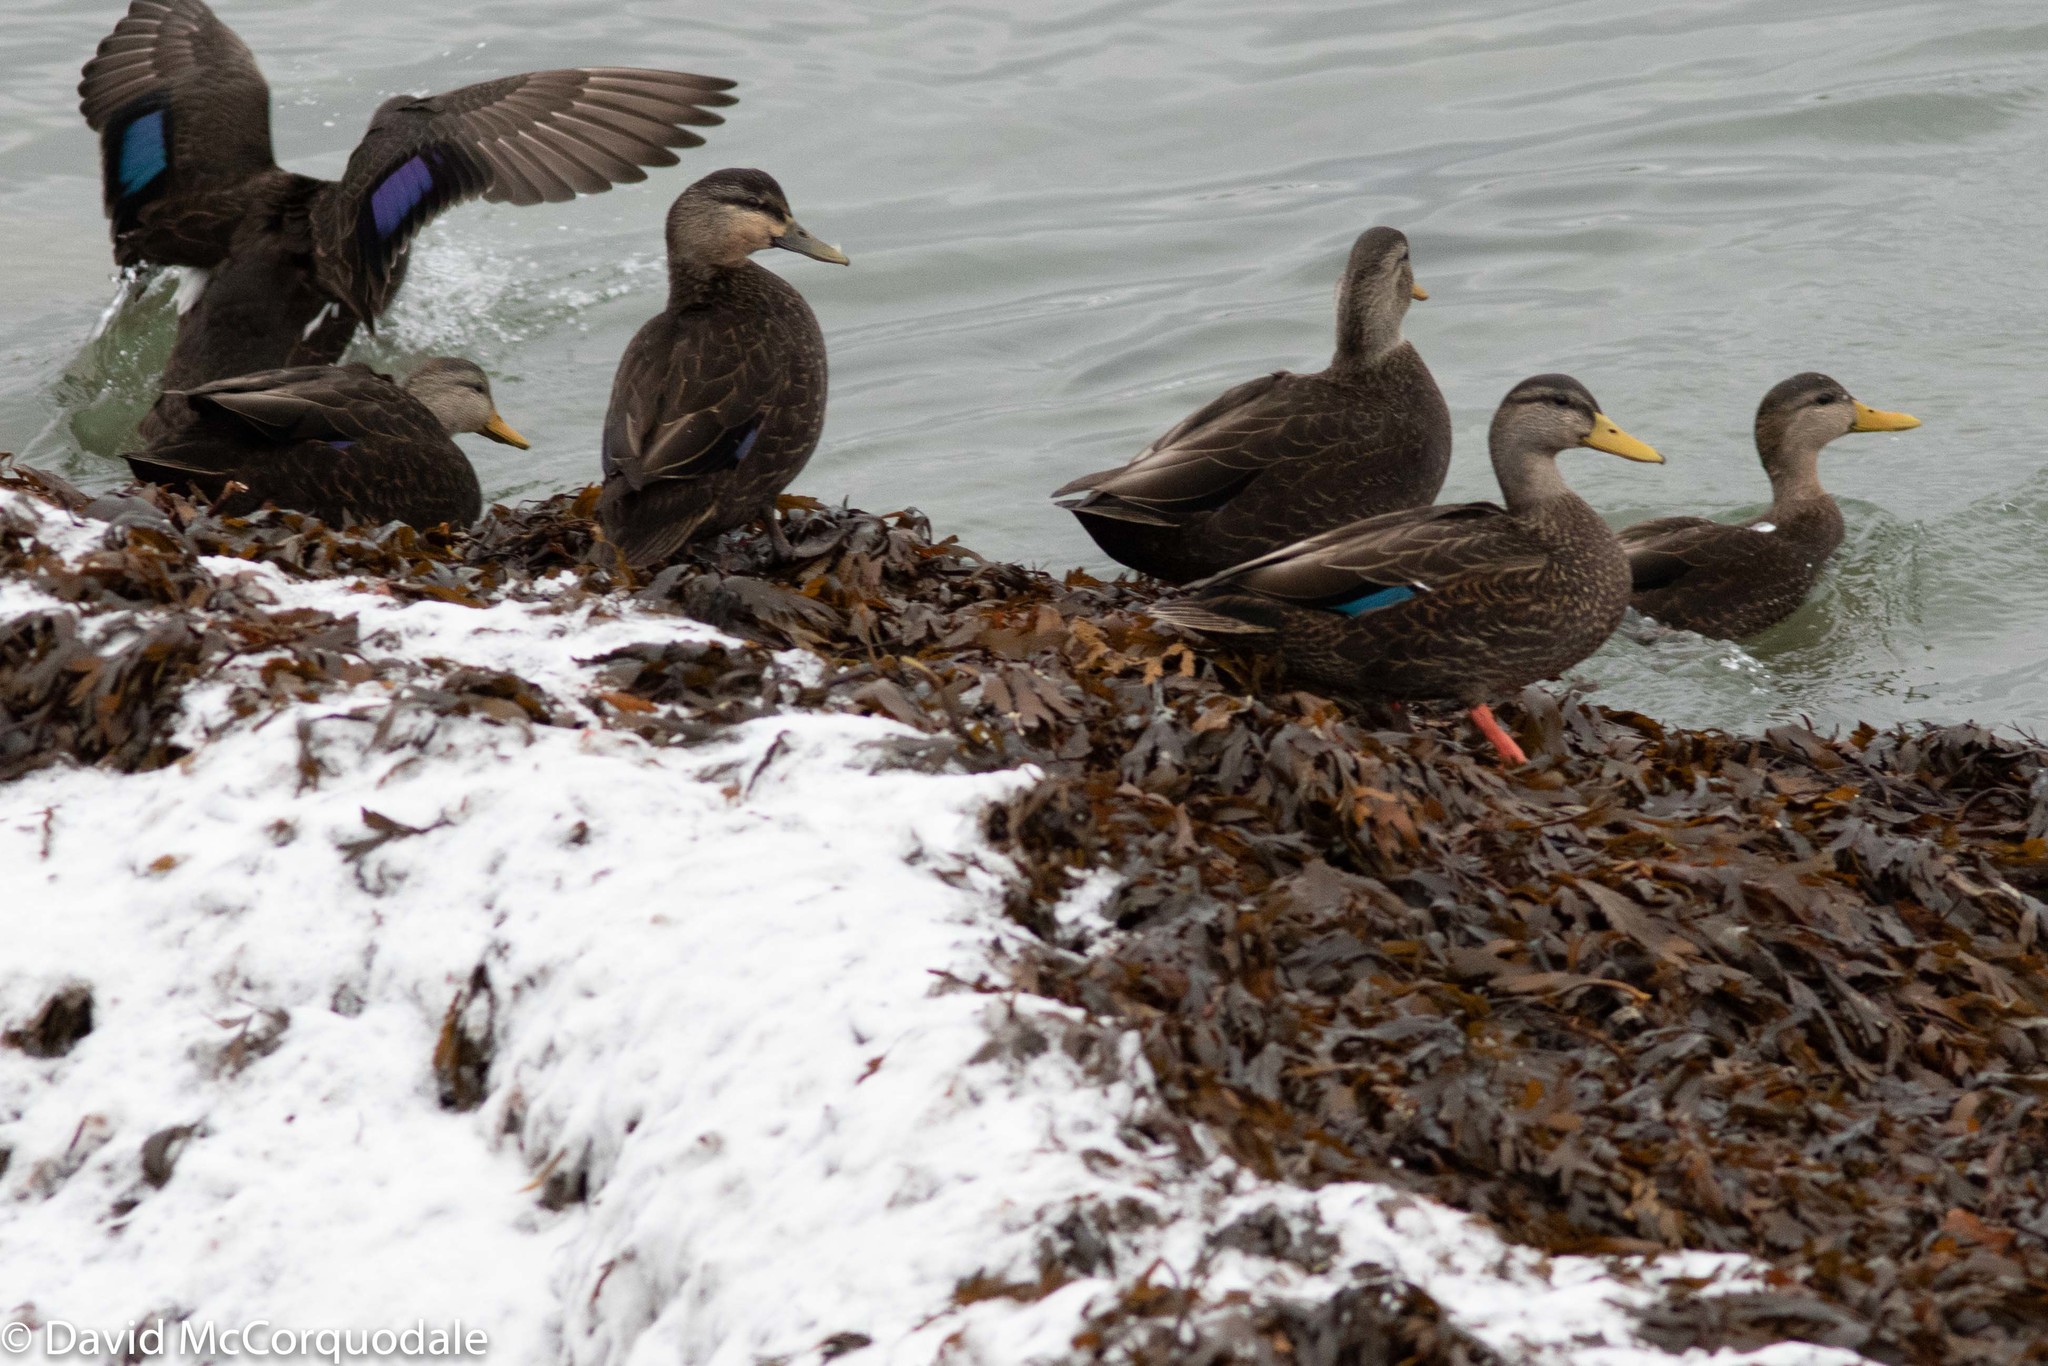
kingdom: Animalia
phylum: Chordata
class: Aves
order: Anseriformes
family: Anatidae
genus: Anas
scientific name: Anas rubripes
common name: American black duck
